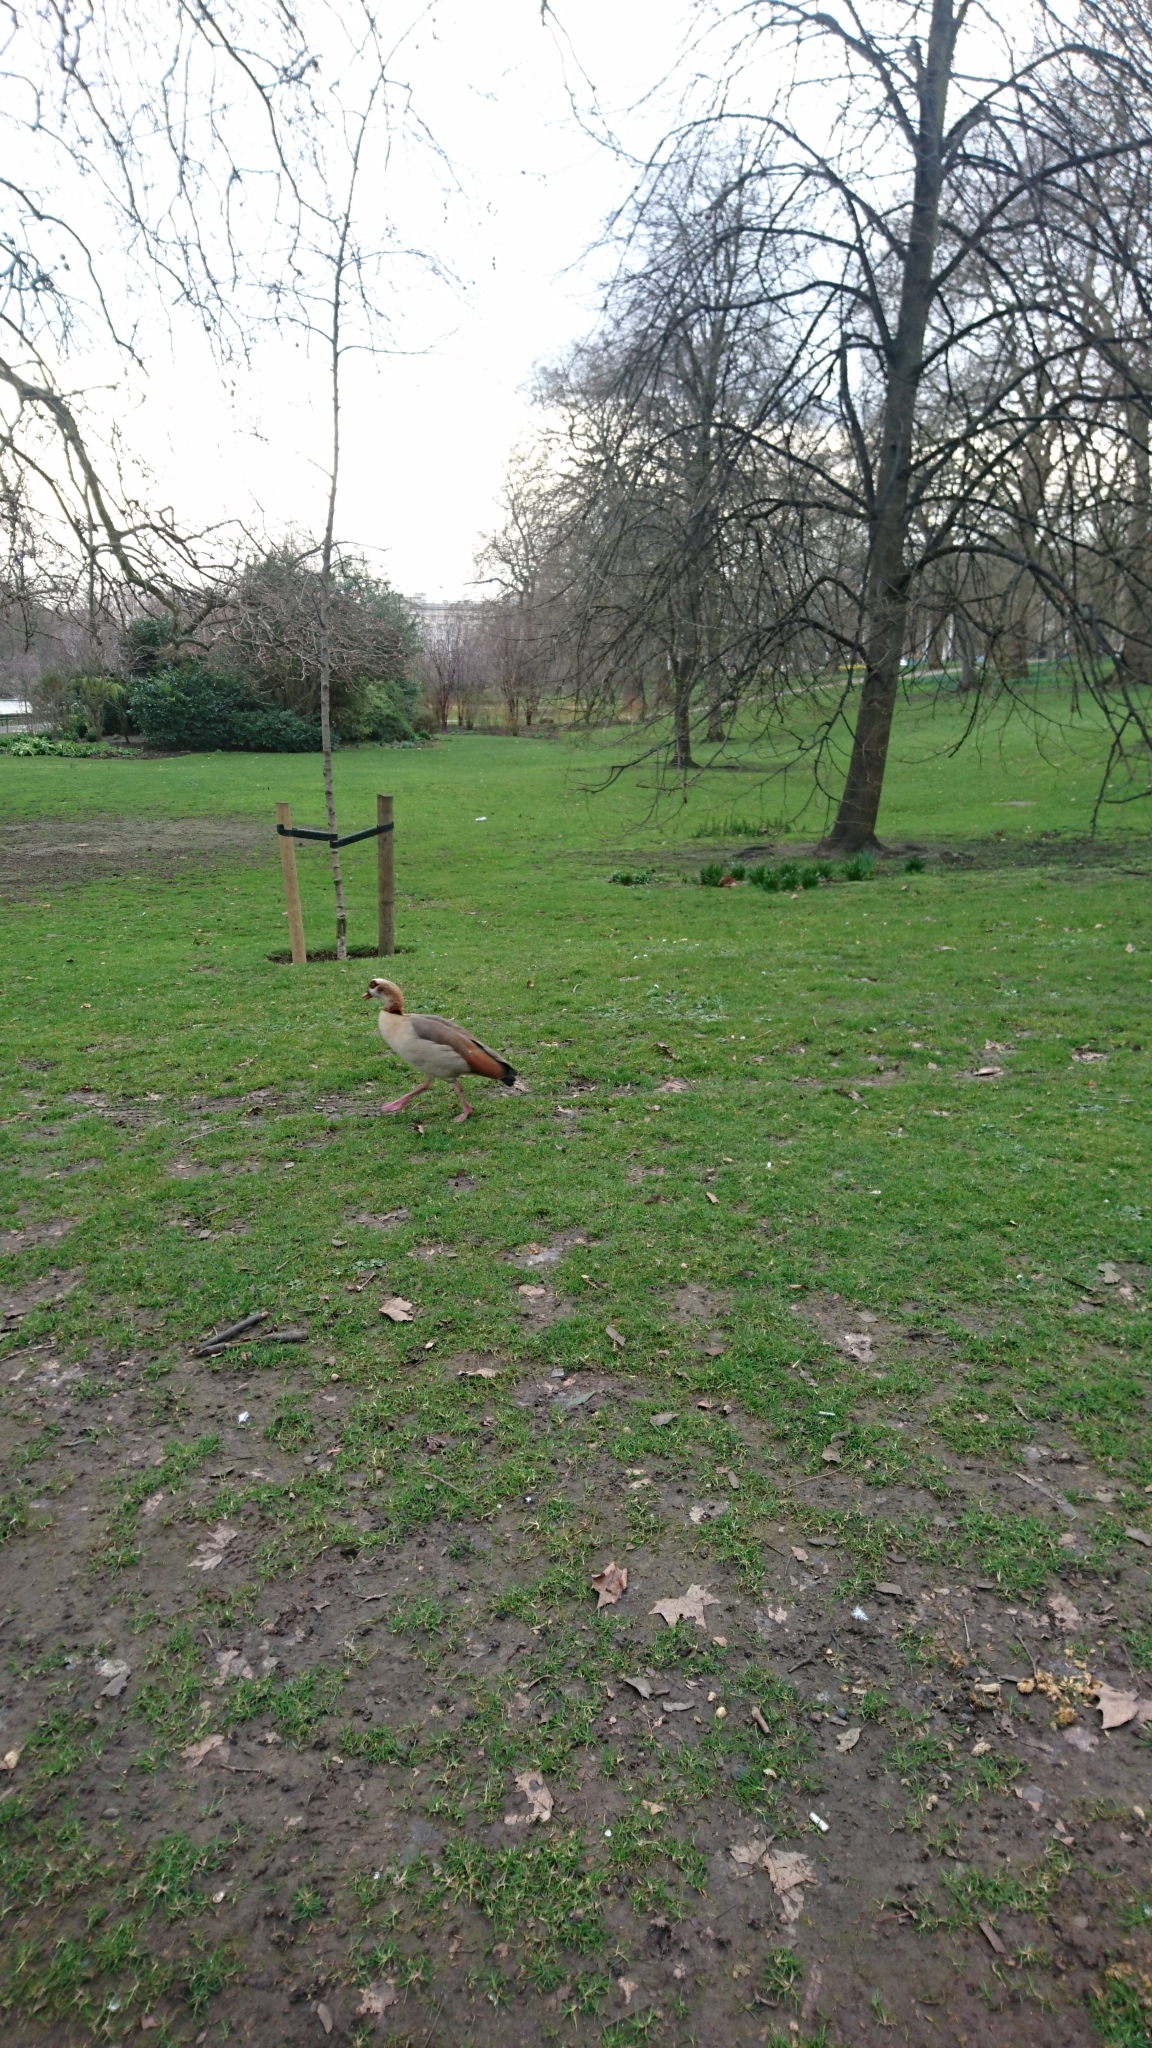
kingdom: Animalia
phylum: Chordata
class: Aves
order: Anseriformes
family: Anatidae
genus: Alopochen
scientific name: Alopochen aegyptiaca
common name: Egyptian goose
